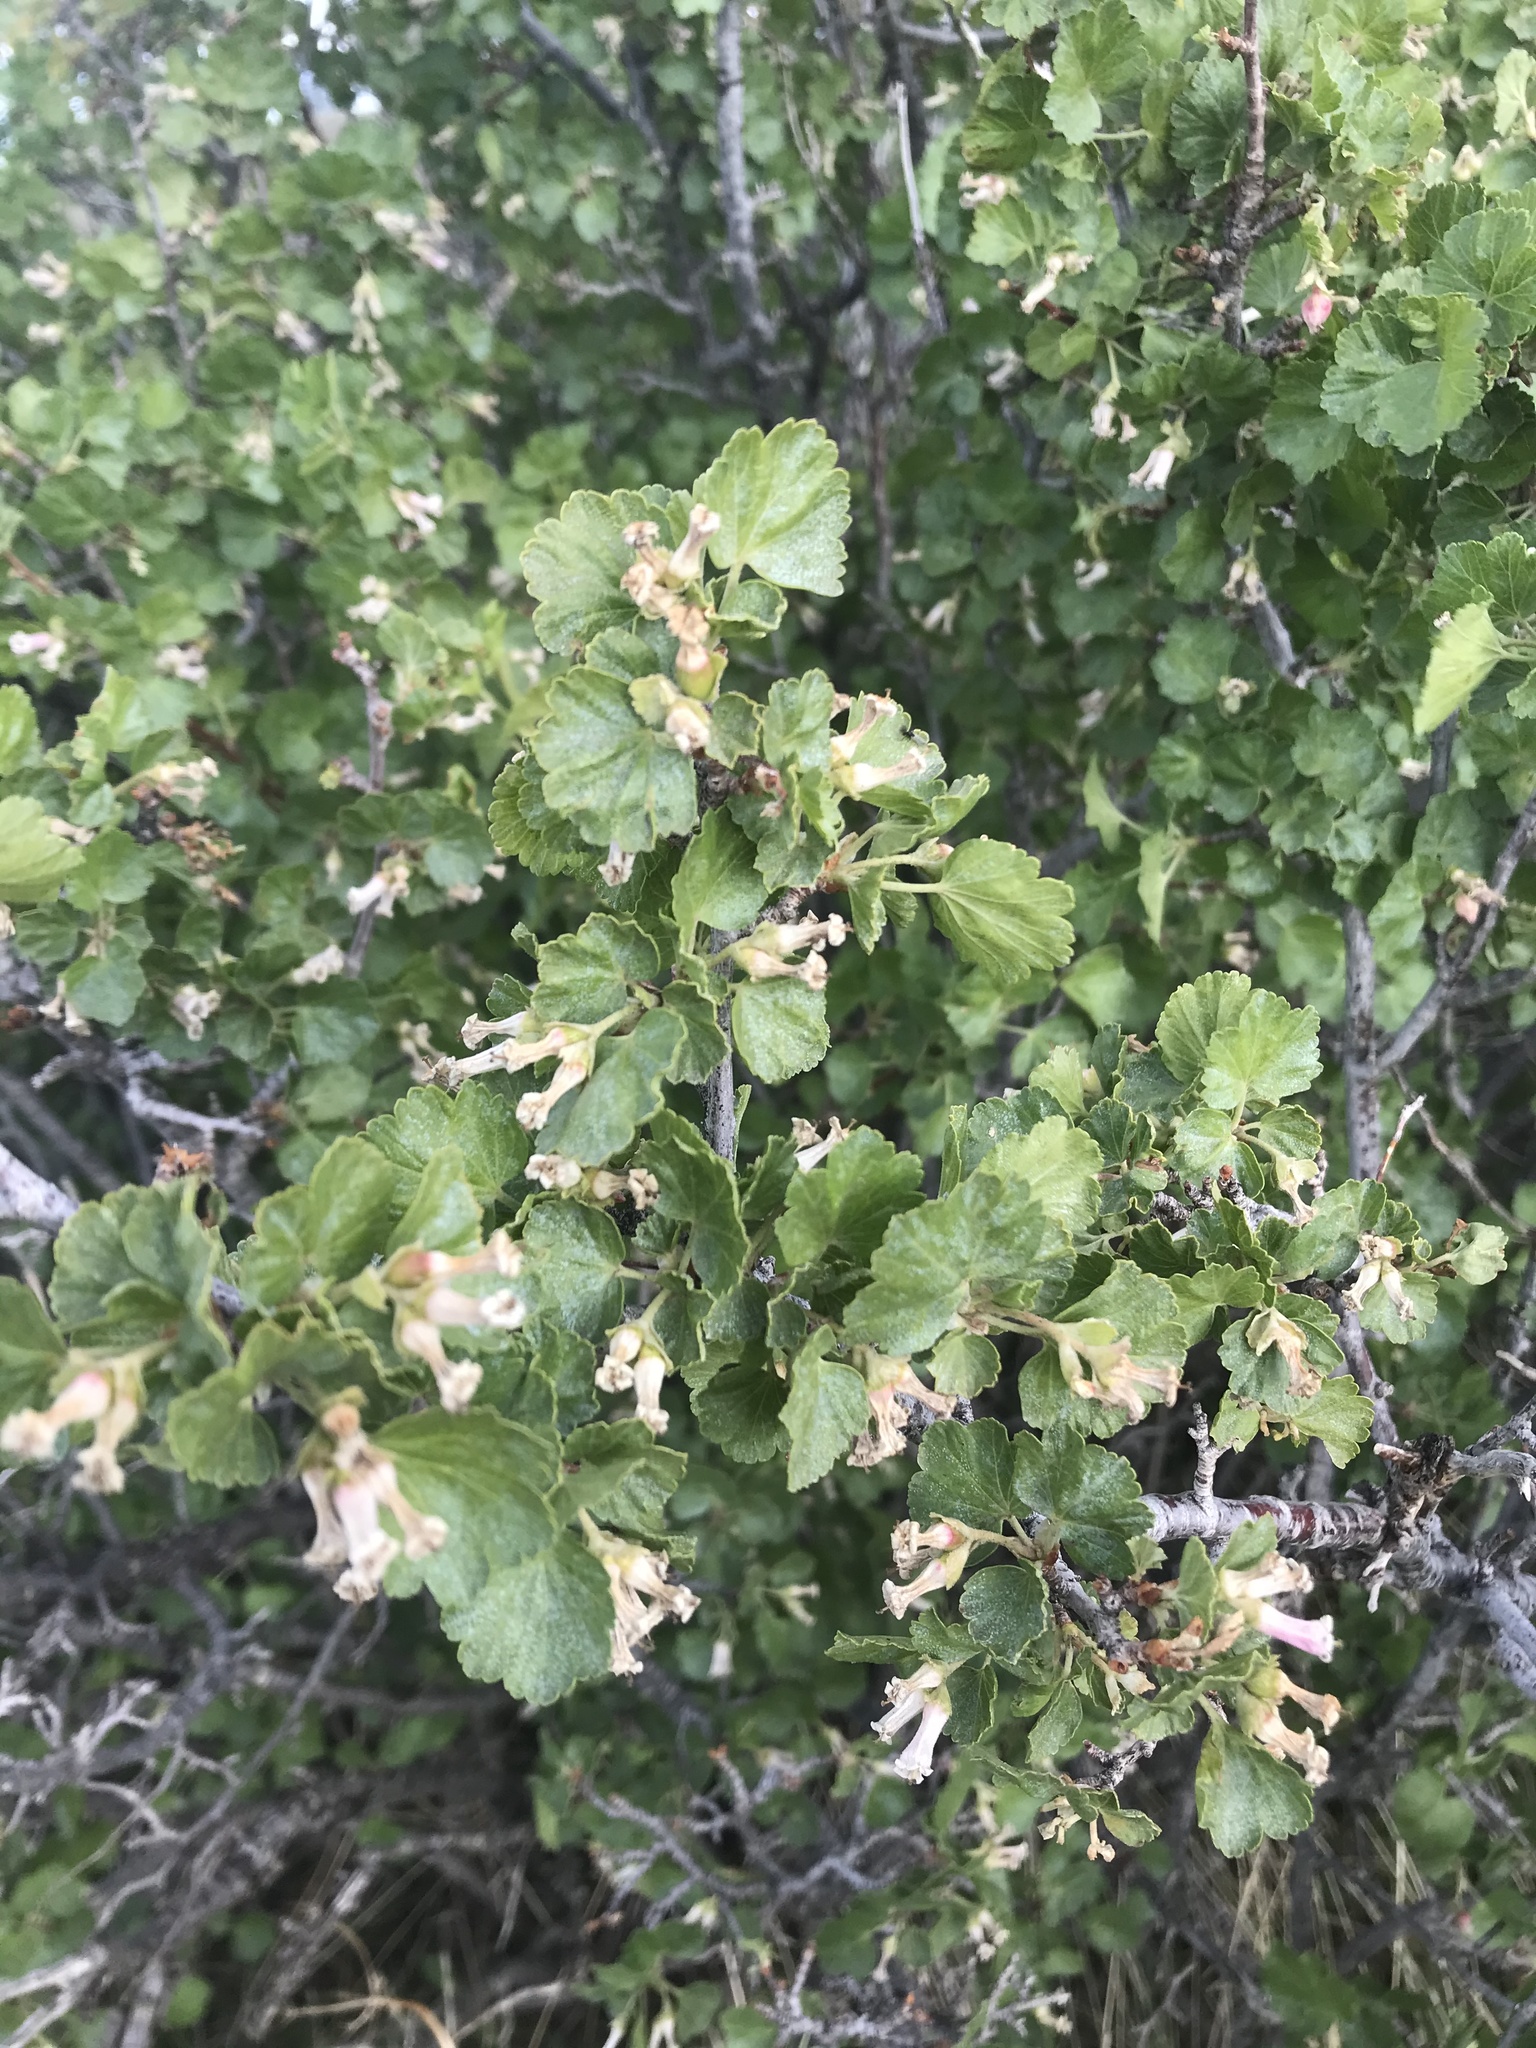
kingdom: Plantae
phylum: Tracheophyta
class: Magnoliopsida
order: Saxifragales
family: Grossulariaceae
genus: Ribes
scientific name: Ribes cereum
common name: Wax currant
